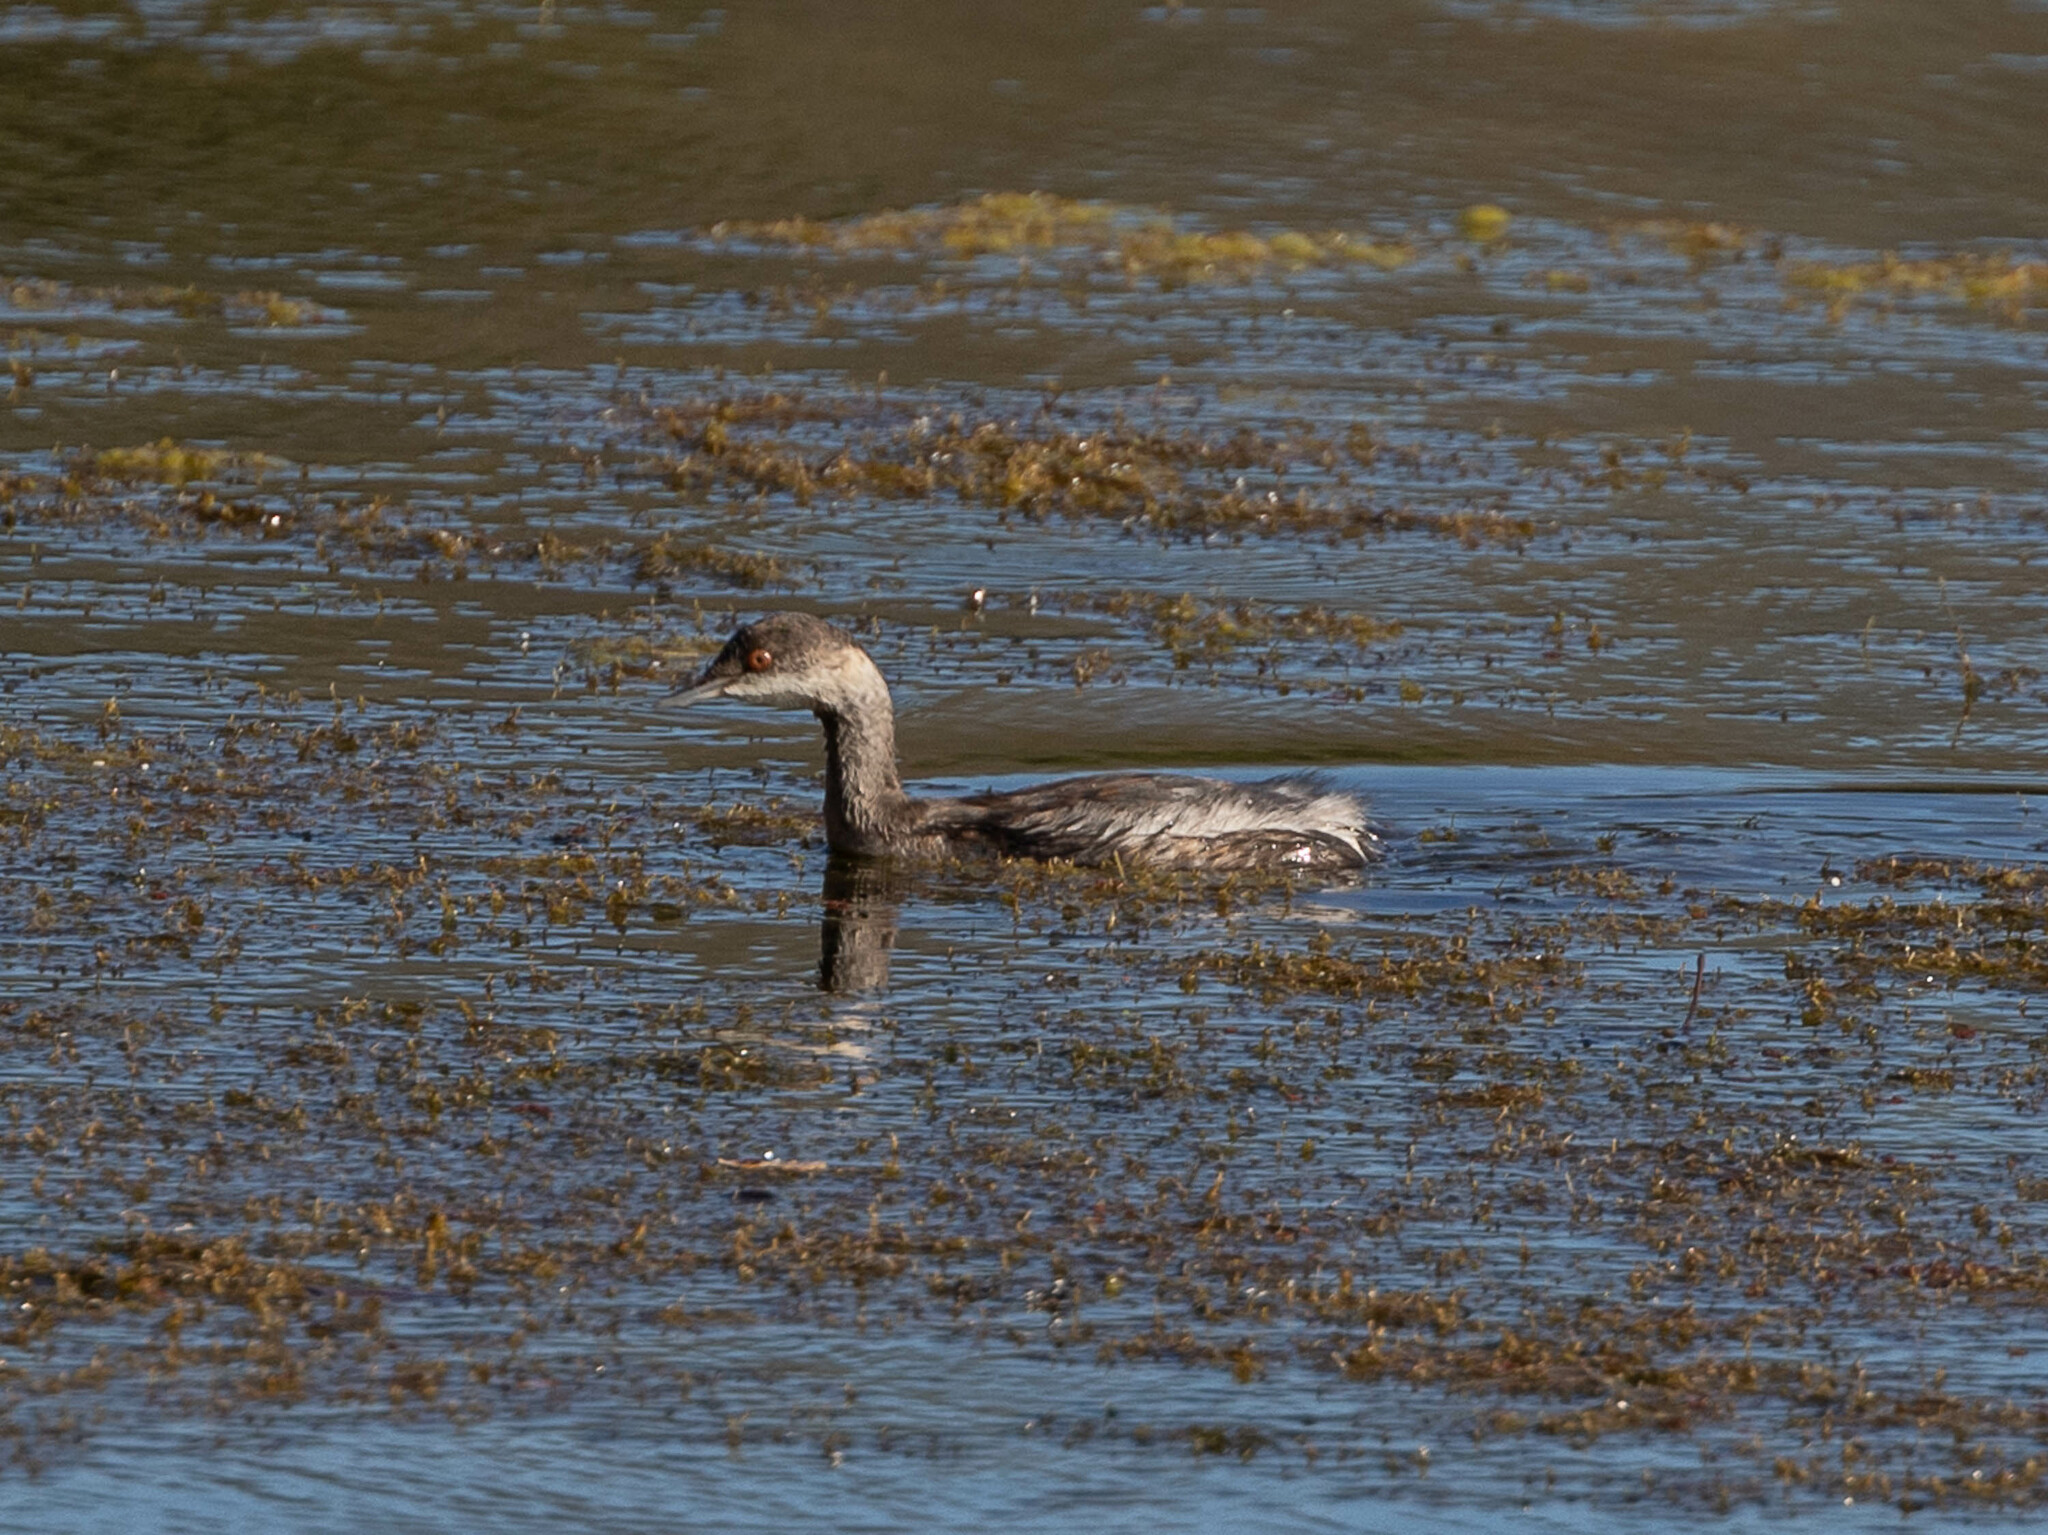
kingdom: Animalia
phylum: Chordata
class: Aves
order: Podicipediformes
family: Podicipedidae
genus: Podiceps
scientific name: Podiceps nigricollis
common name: Black-necked grebe
